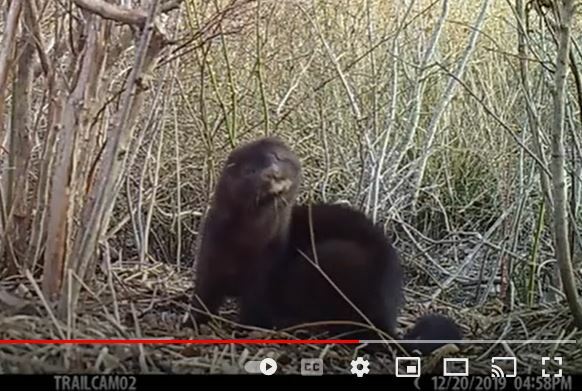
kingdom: Animalia
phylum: Chordata
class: Mammalia
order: Carnivora
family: Mustelidae
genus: Mustela
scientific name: Mustela
